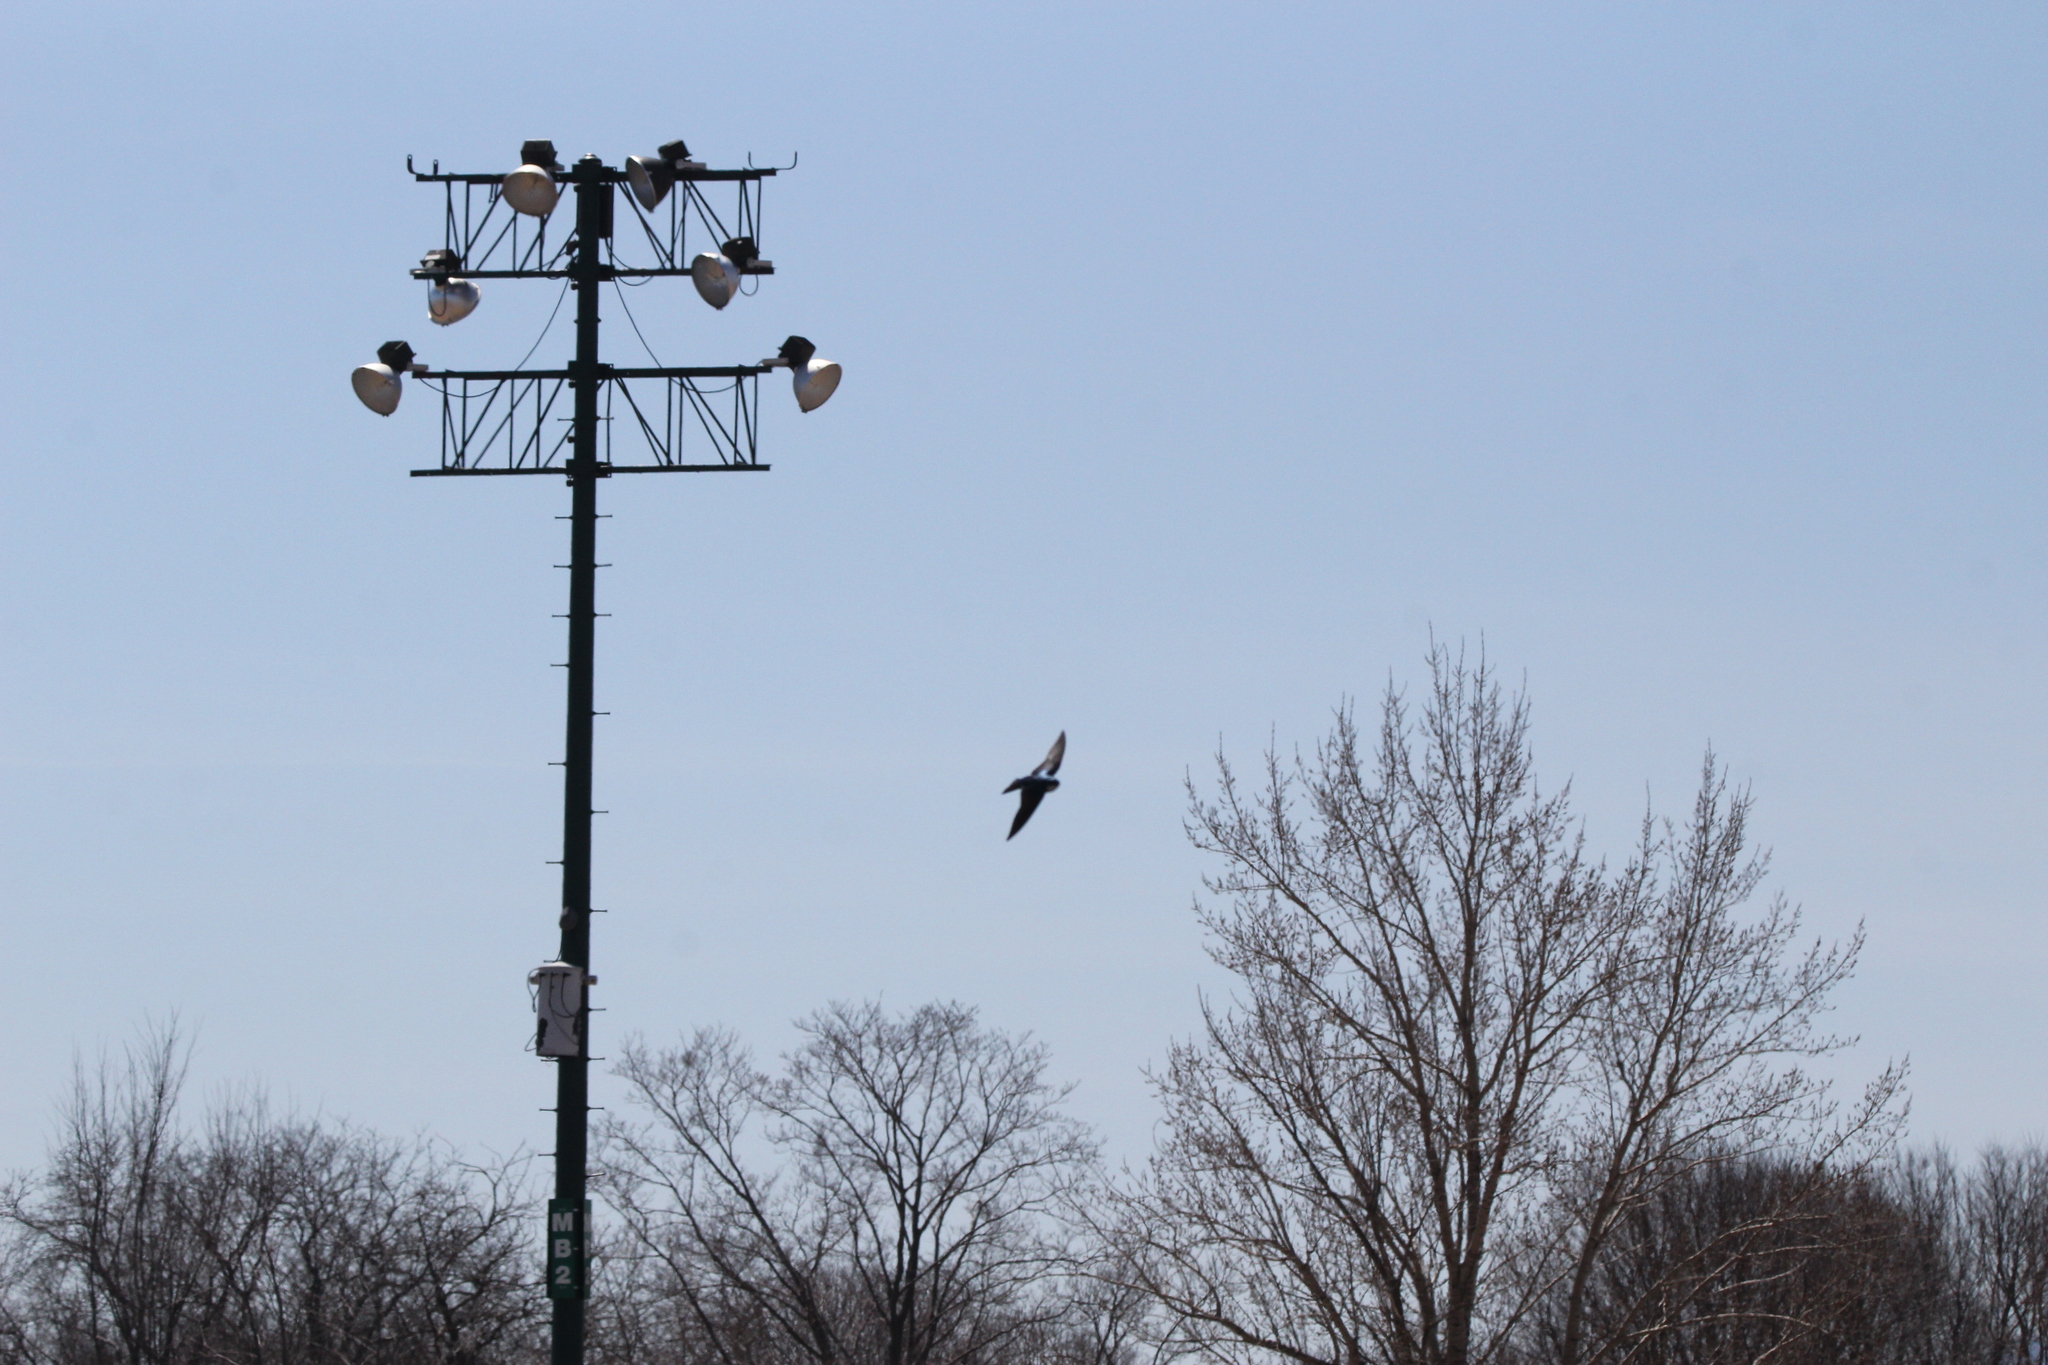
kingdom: Animalia
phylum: Chordata
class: Aves
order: Passeriformes
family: Hirundinidae
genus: Tachycineta
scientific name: Tachycineta bicolor
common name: Tree swallow
